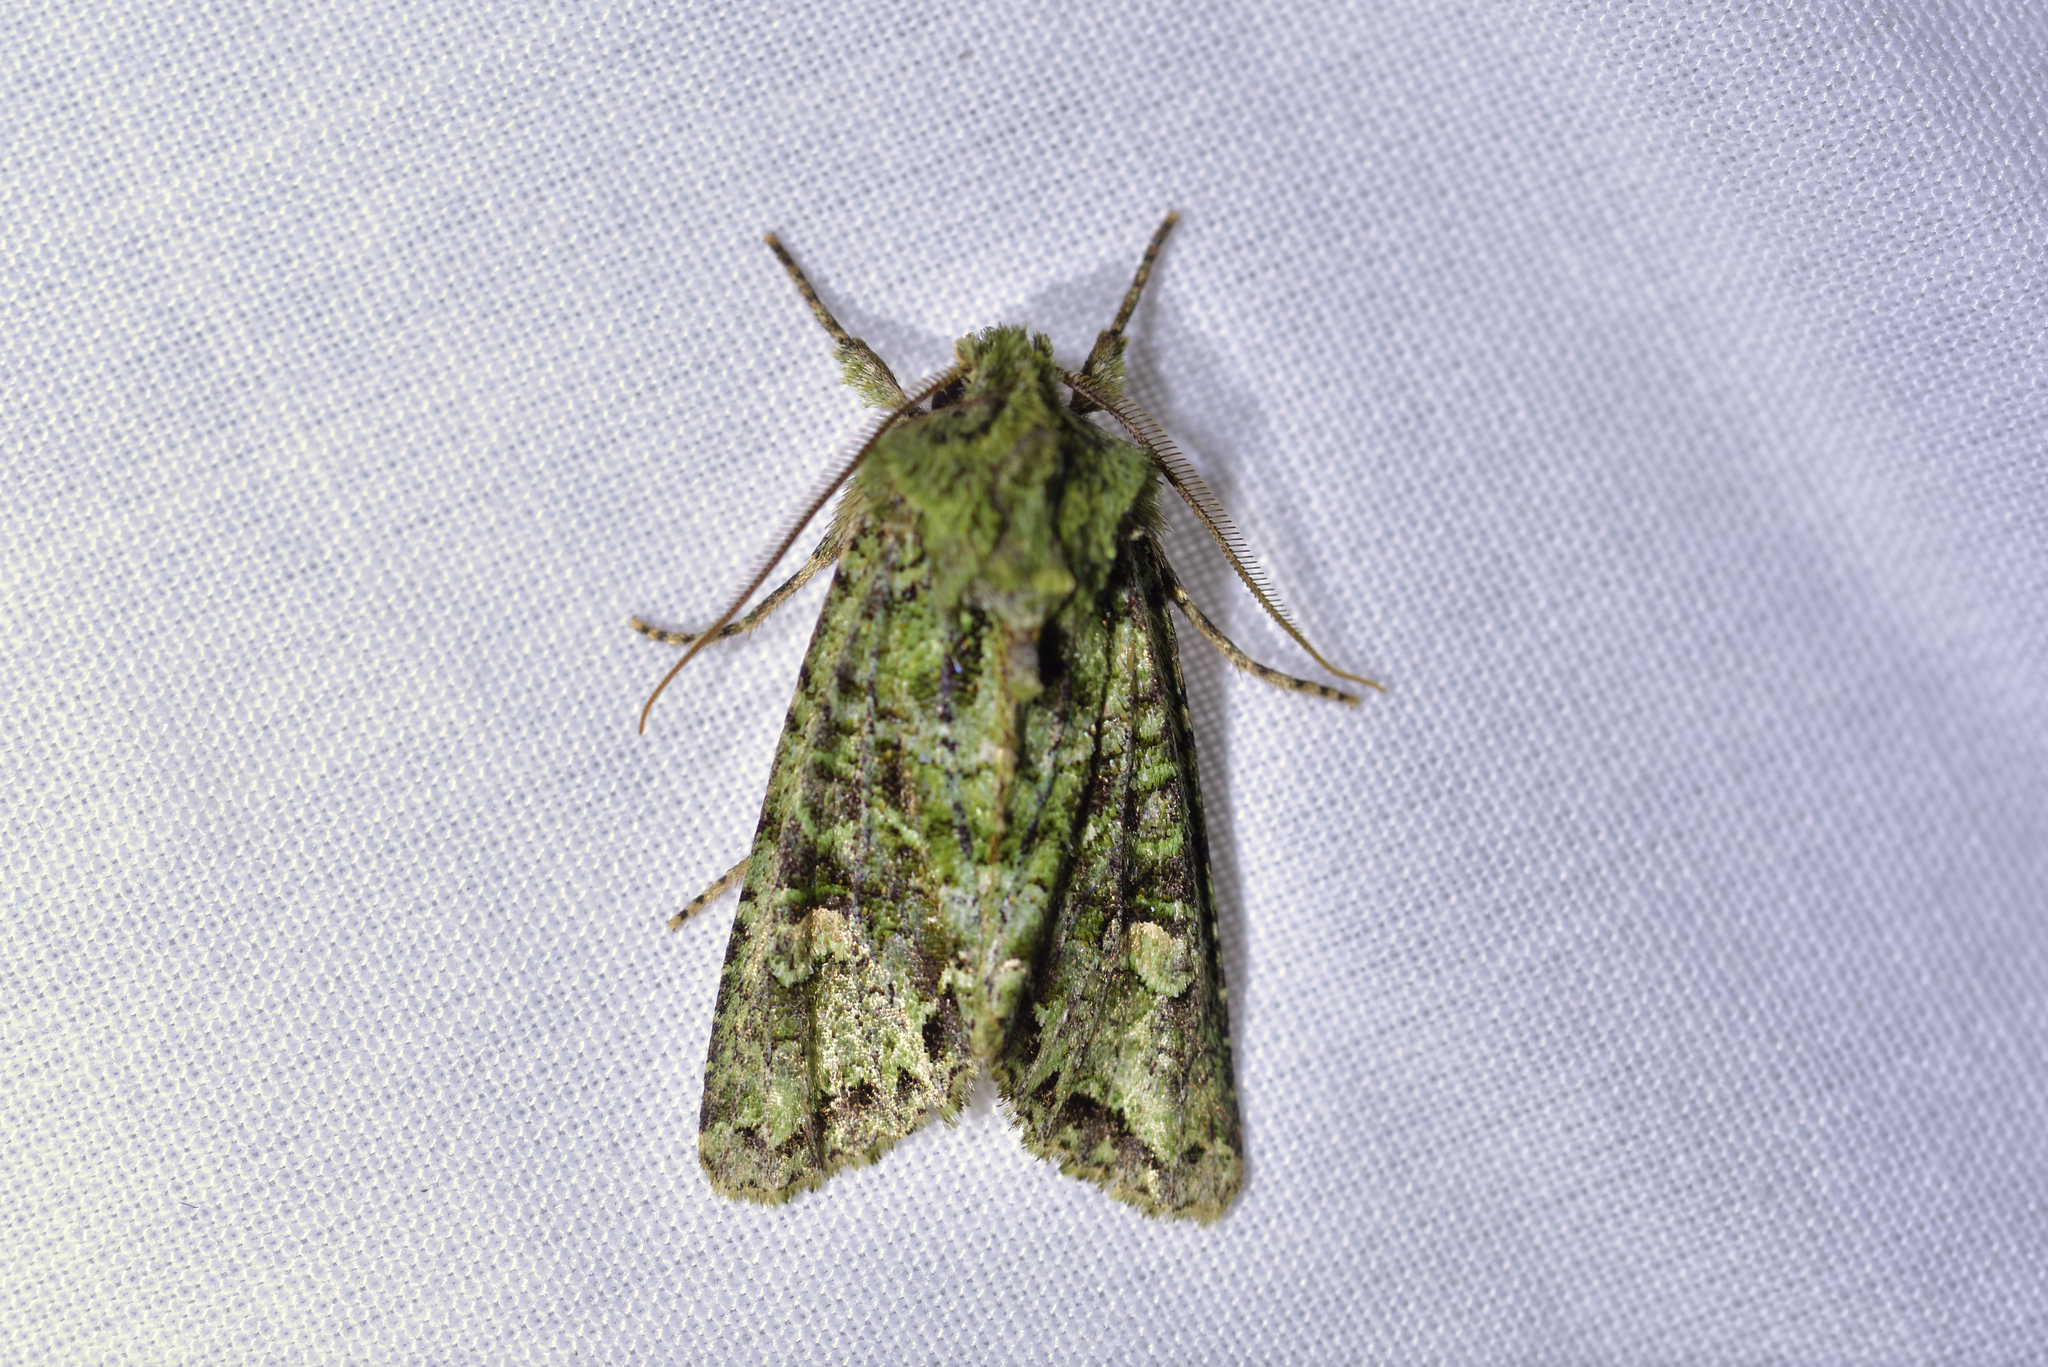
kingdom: Animalia
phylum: Arthropoda
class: Insecta
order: Lepidoptera
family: Noctuidae
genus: Ichneutica
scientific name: Ichneutica
